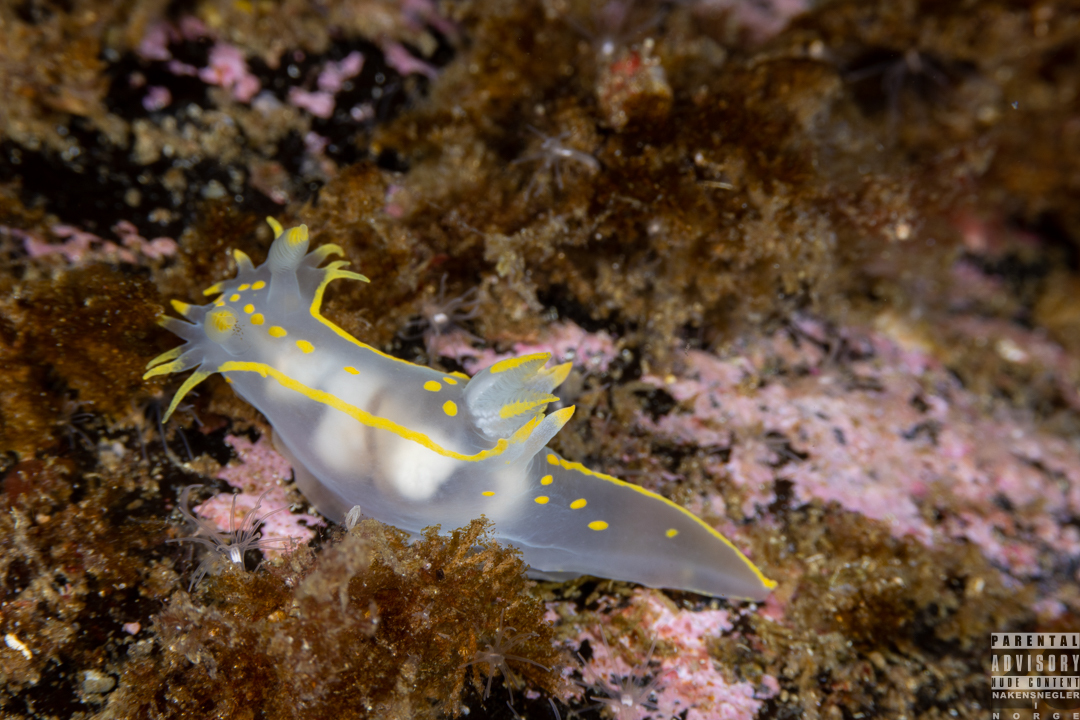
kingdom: Animalia
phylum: Mollusca
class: Gastropoda
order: Nudibranchia
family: Polyceridae
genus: Polycera
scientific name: Polycera faeroensis
